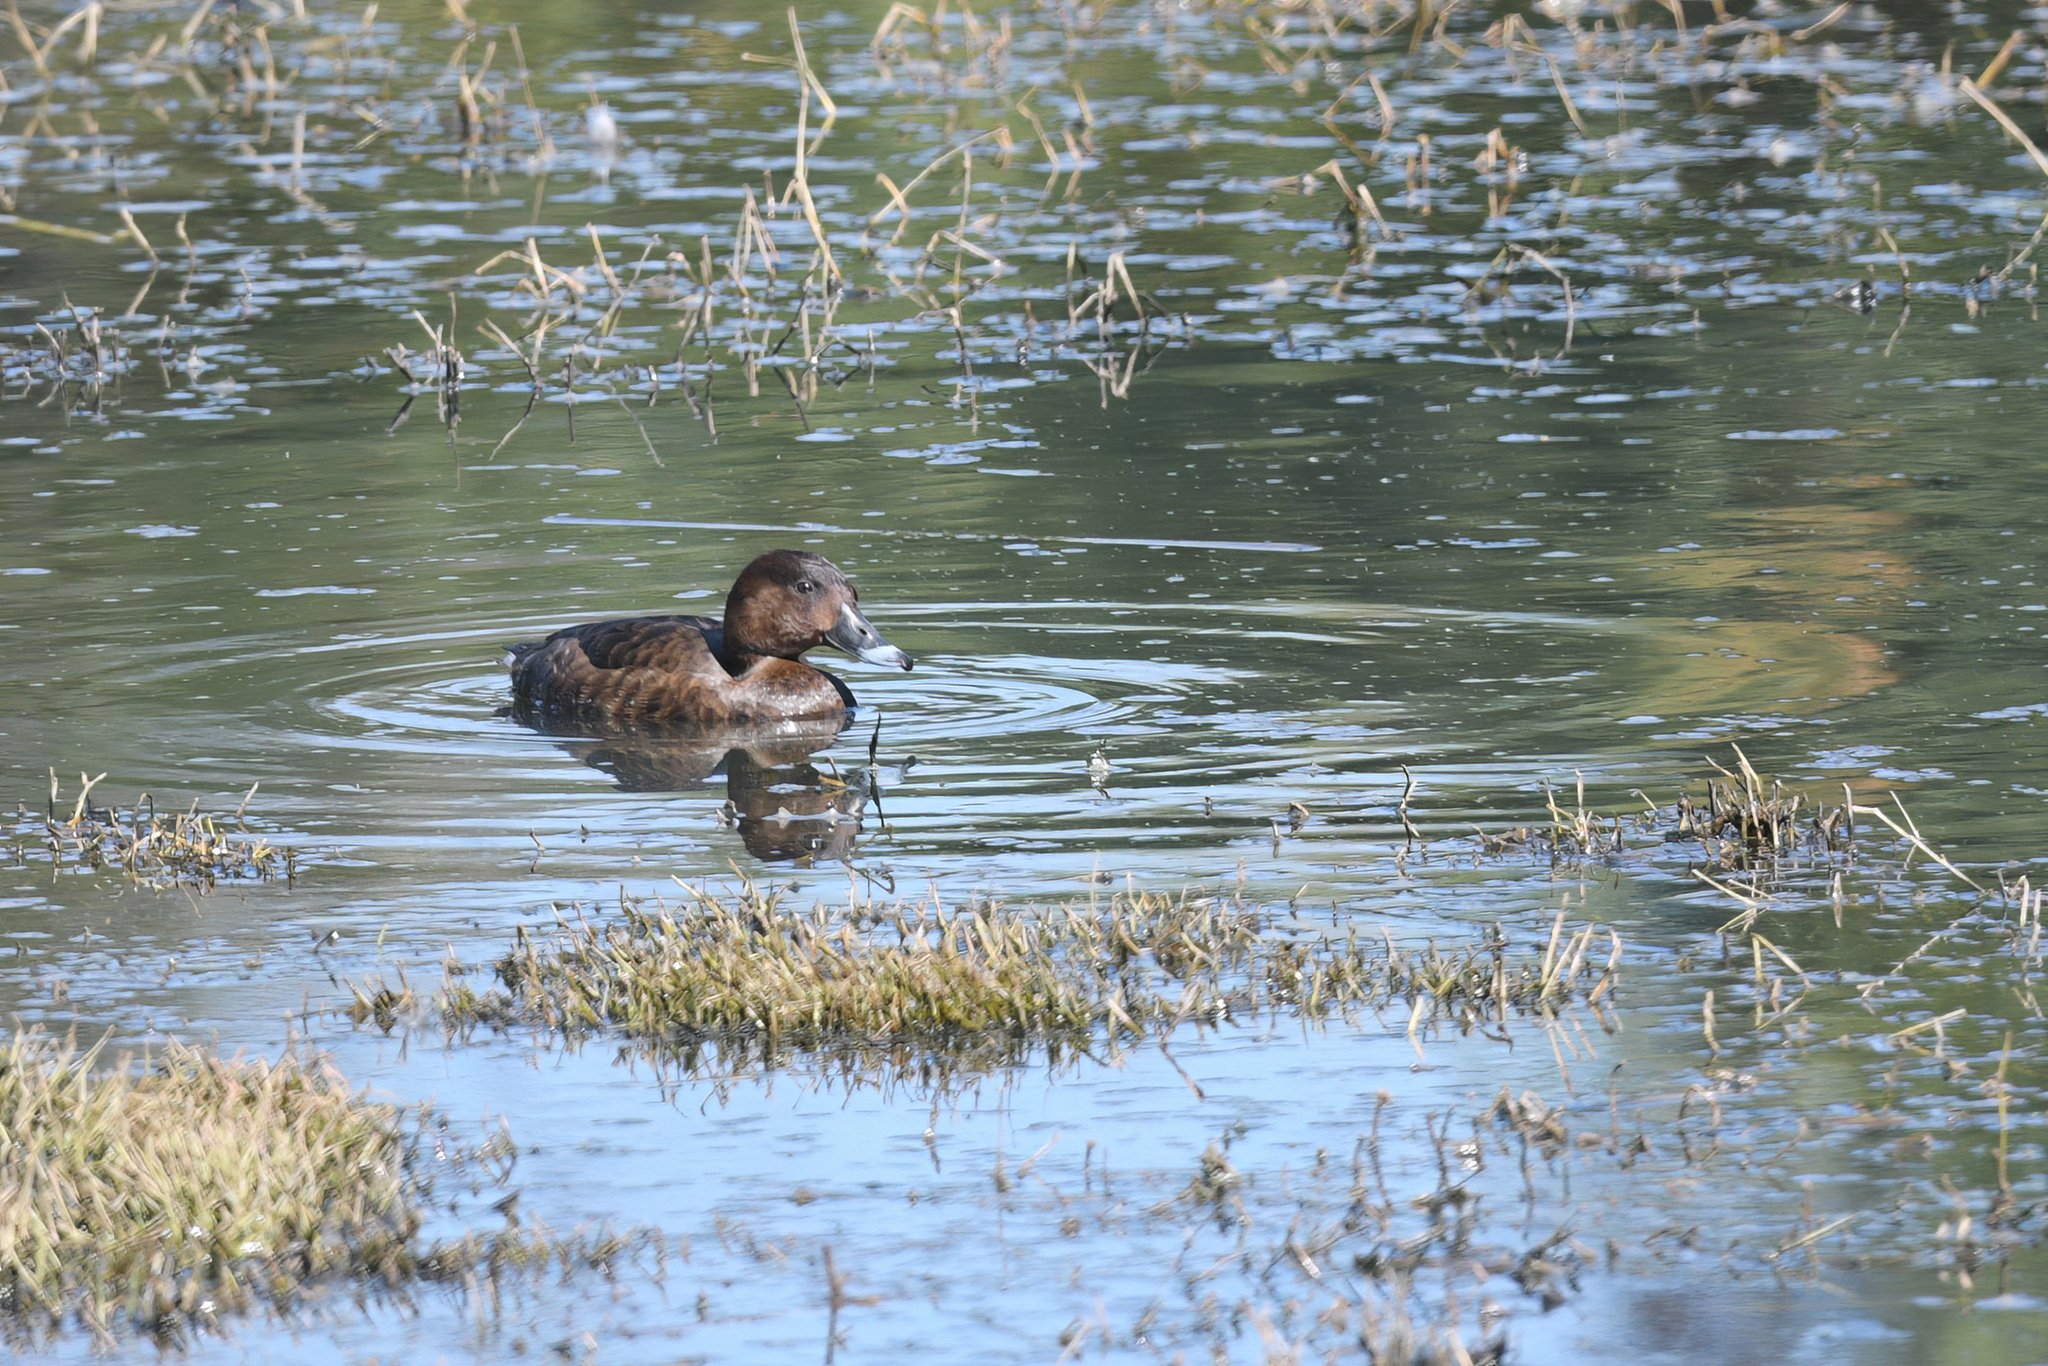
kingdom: Animalia
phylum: Chordata
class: Aves
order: Anseriformes
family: Anatidae
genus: Aythya
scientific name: Aythya australis
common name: Hardhead
